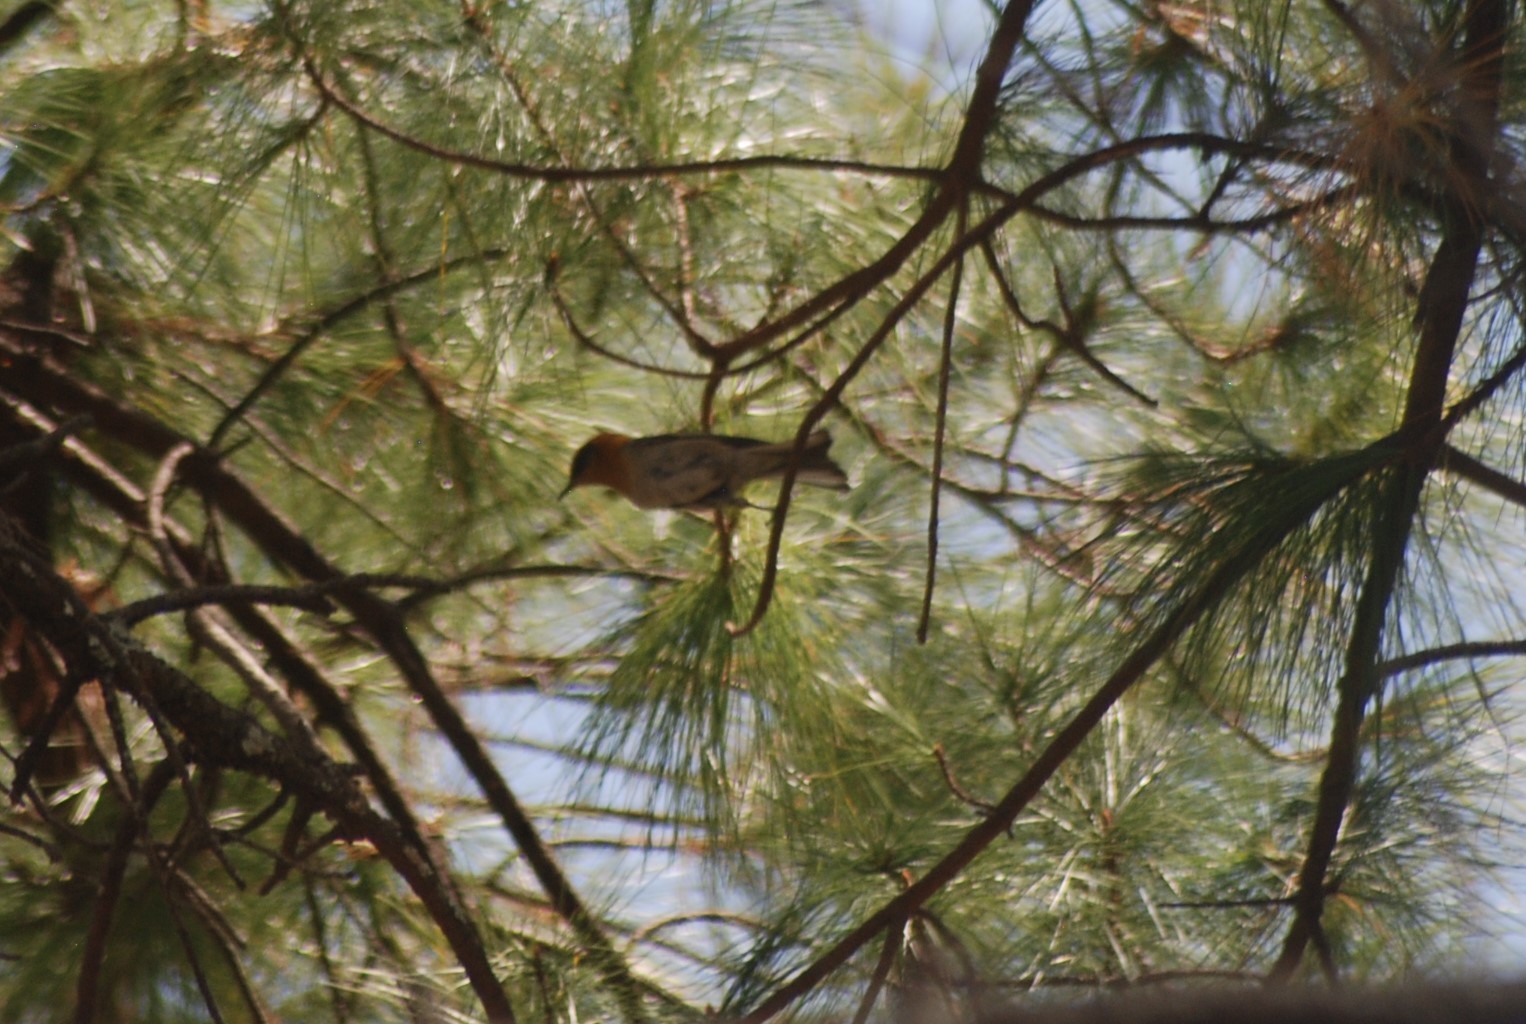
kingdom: Animalia
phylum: Chordata
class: Aves
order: Passeriformes
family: Peucedramidae
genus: Peucedramus
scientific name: Peucedramus taeniatus
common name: Olive warbler
